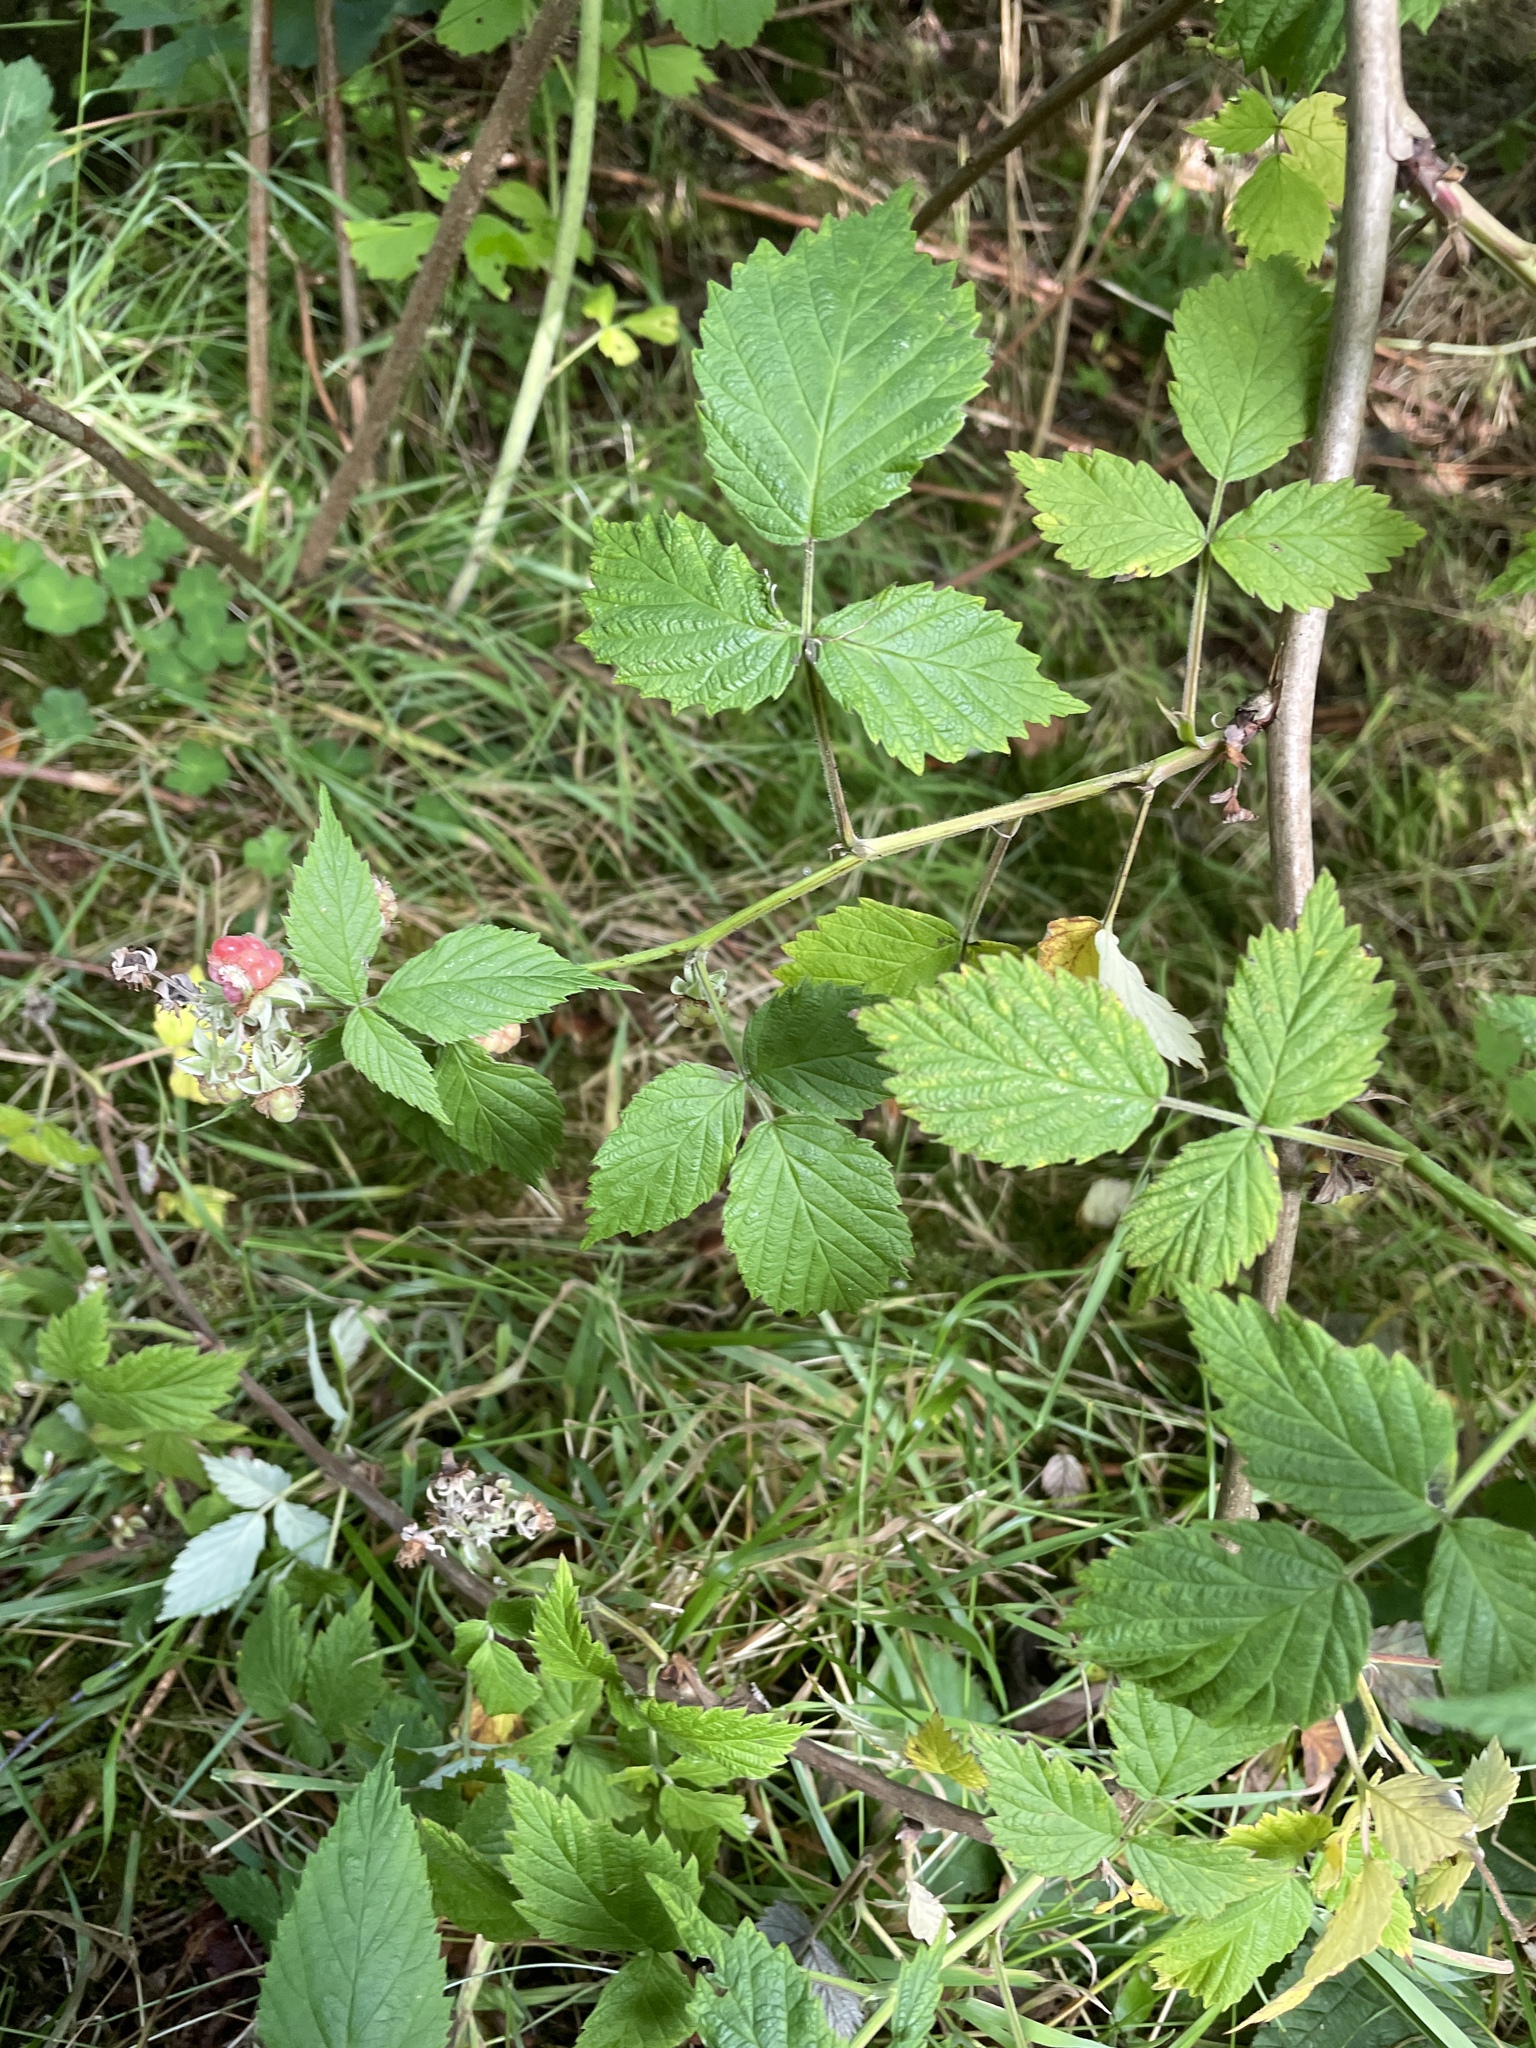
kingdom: Plantae
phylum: Tracheophyta
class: Magnoliopsida
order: Rosales
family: Rosaceae
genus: Rubus
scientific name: Rubus idaeus
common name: Raspberry
